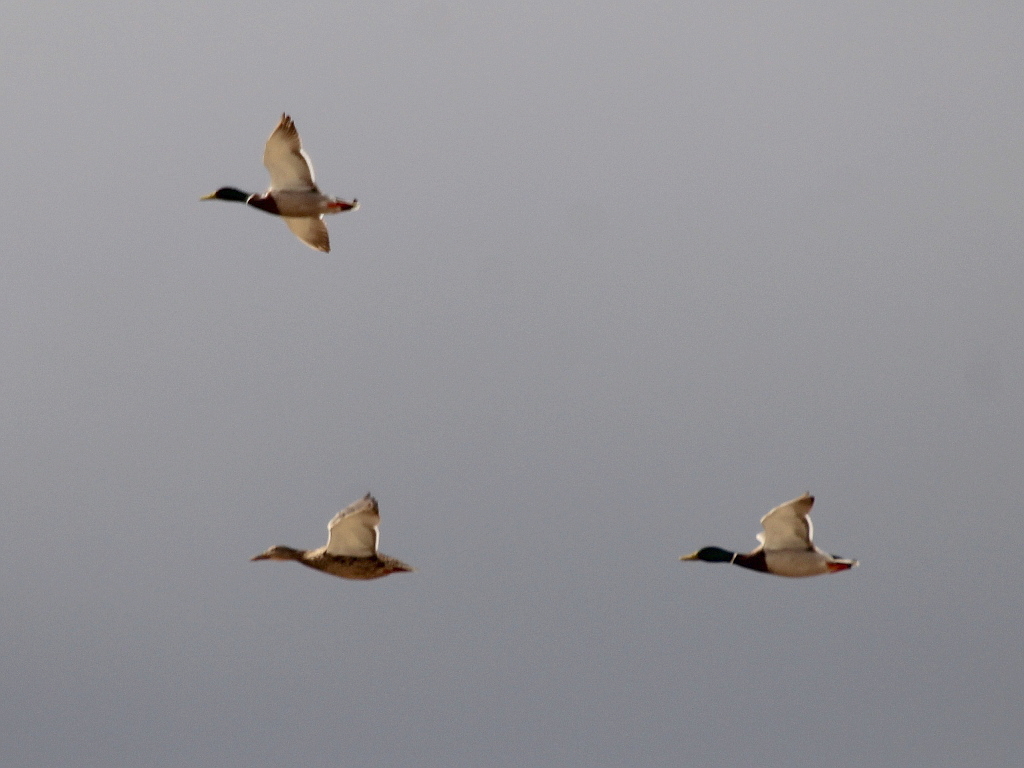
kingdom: Animalia
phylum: Chordata
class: Aves
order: Anseriformes
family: Anatidae
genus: Anas
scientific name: Anas platyrhynchos
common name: Mallard
